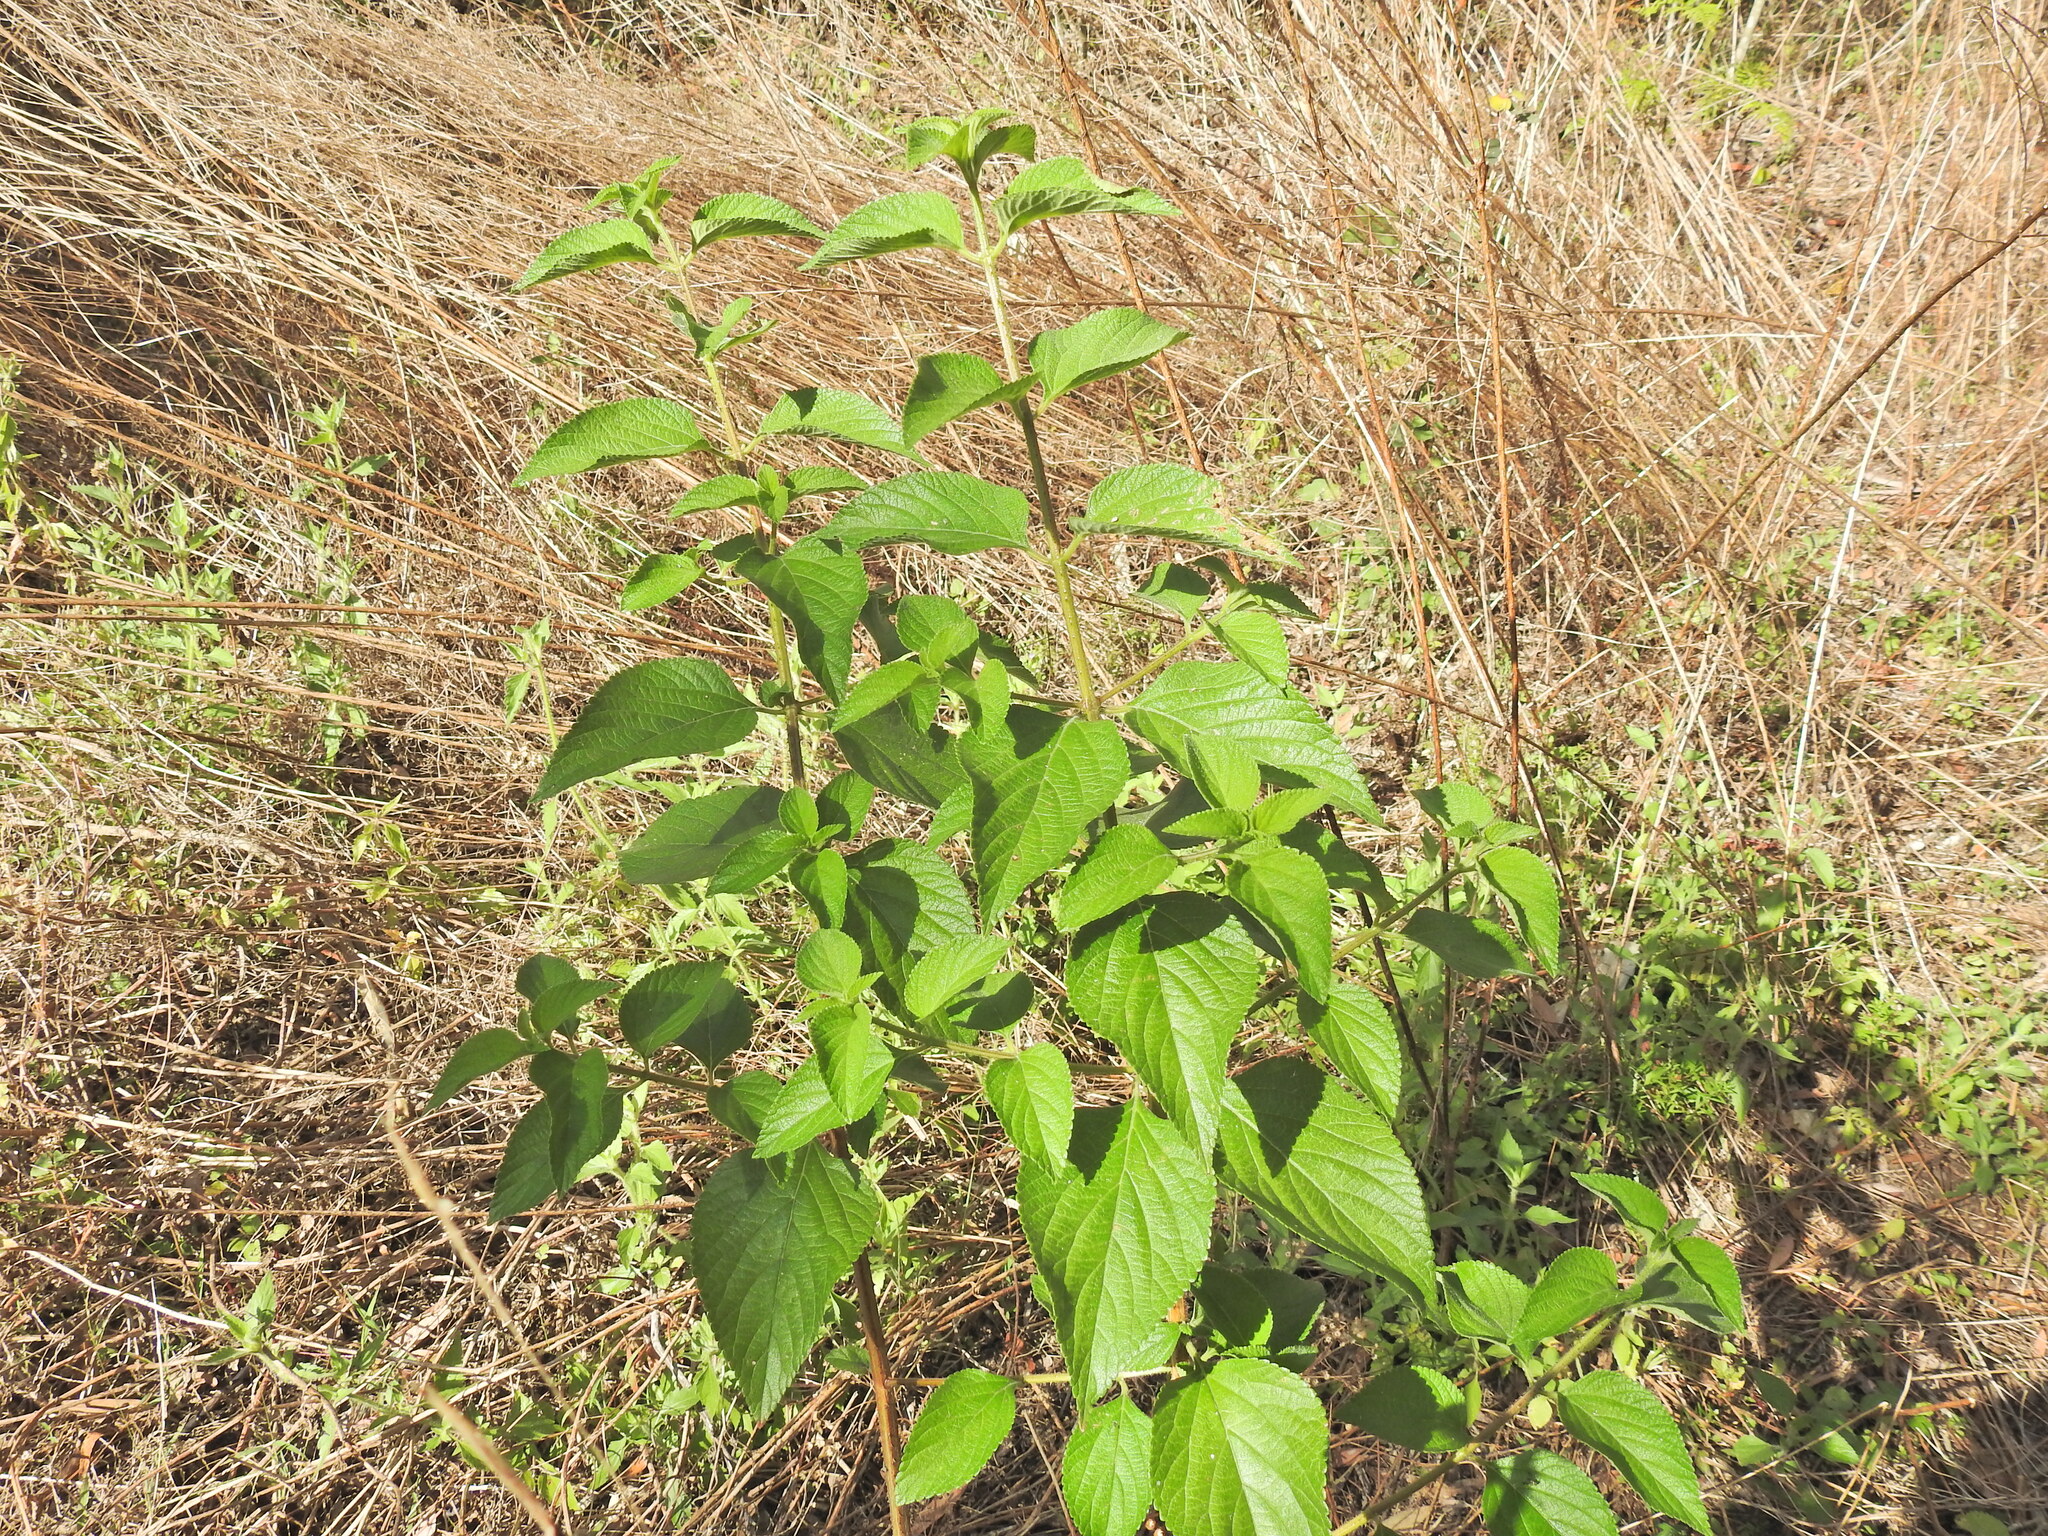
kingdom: Plantae
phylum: Tracheophyta
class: Magnoliopsida
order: Lamiales
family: Verbenaceae
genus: Lantana
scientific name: Lantana camara
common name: Lantana
